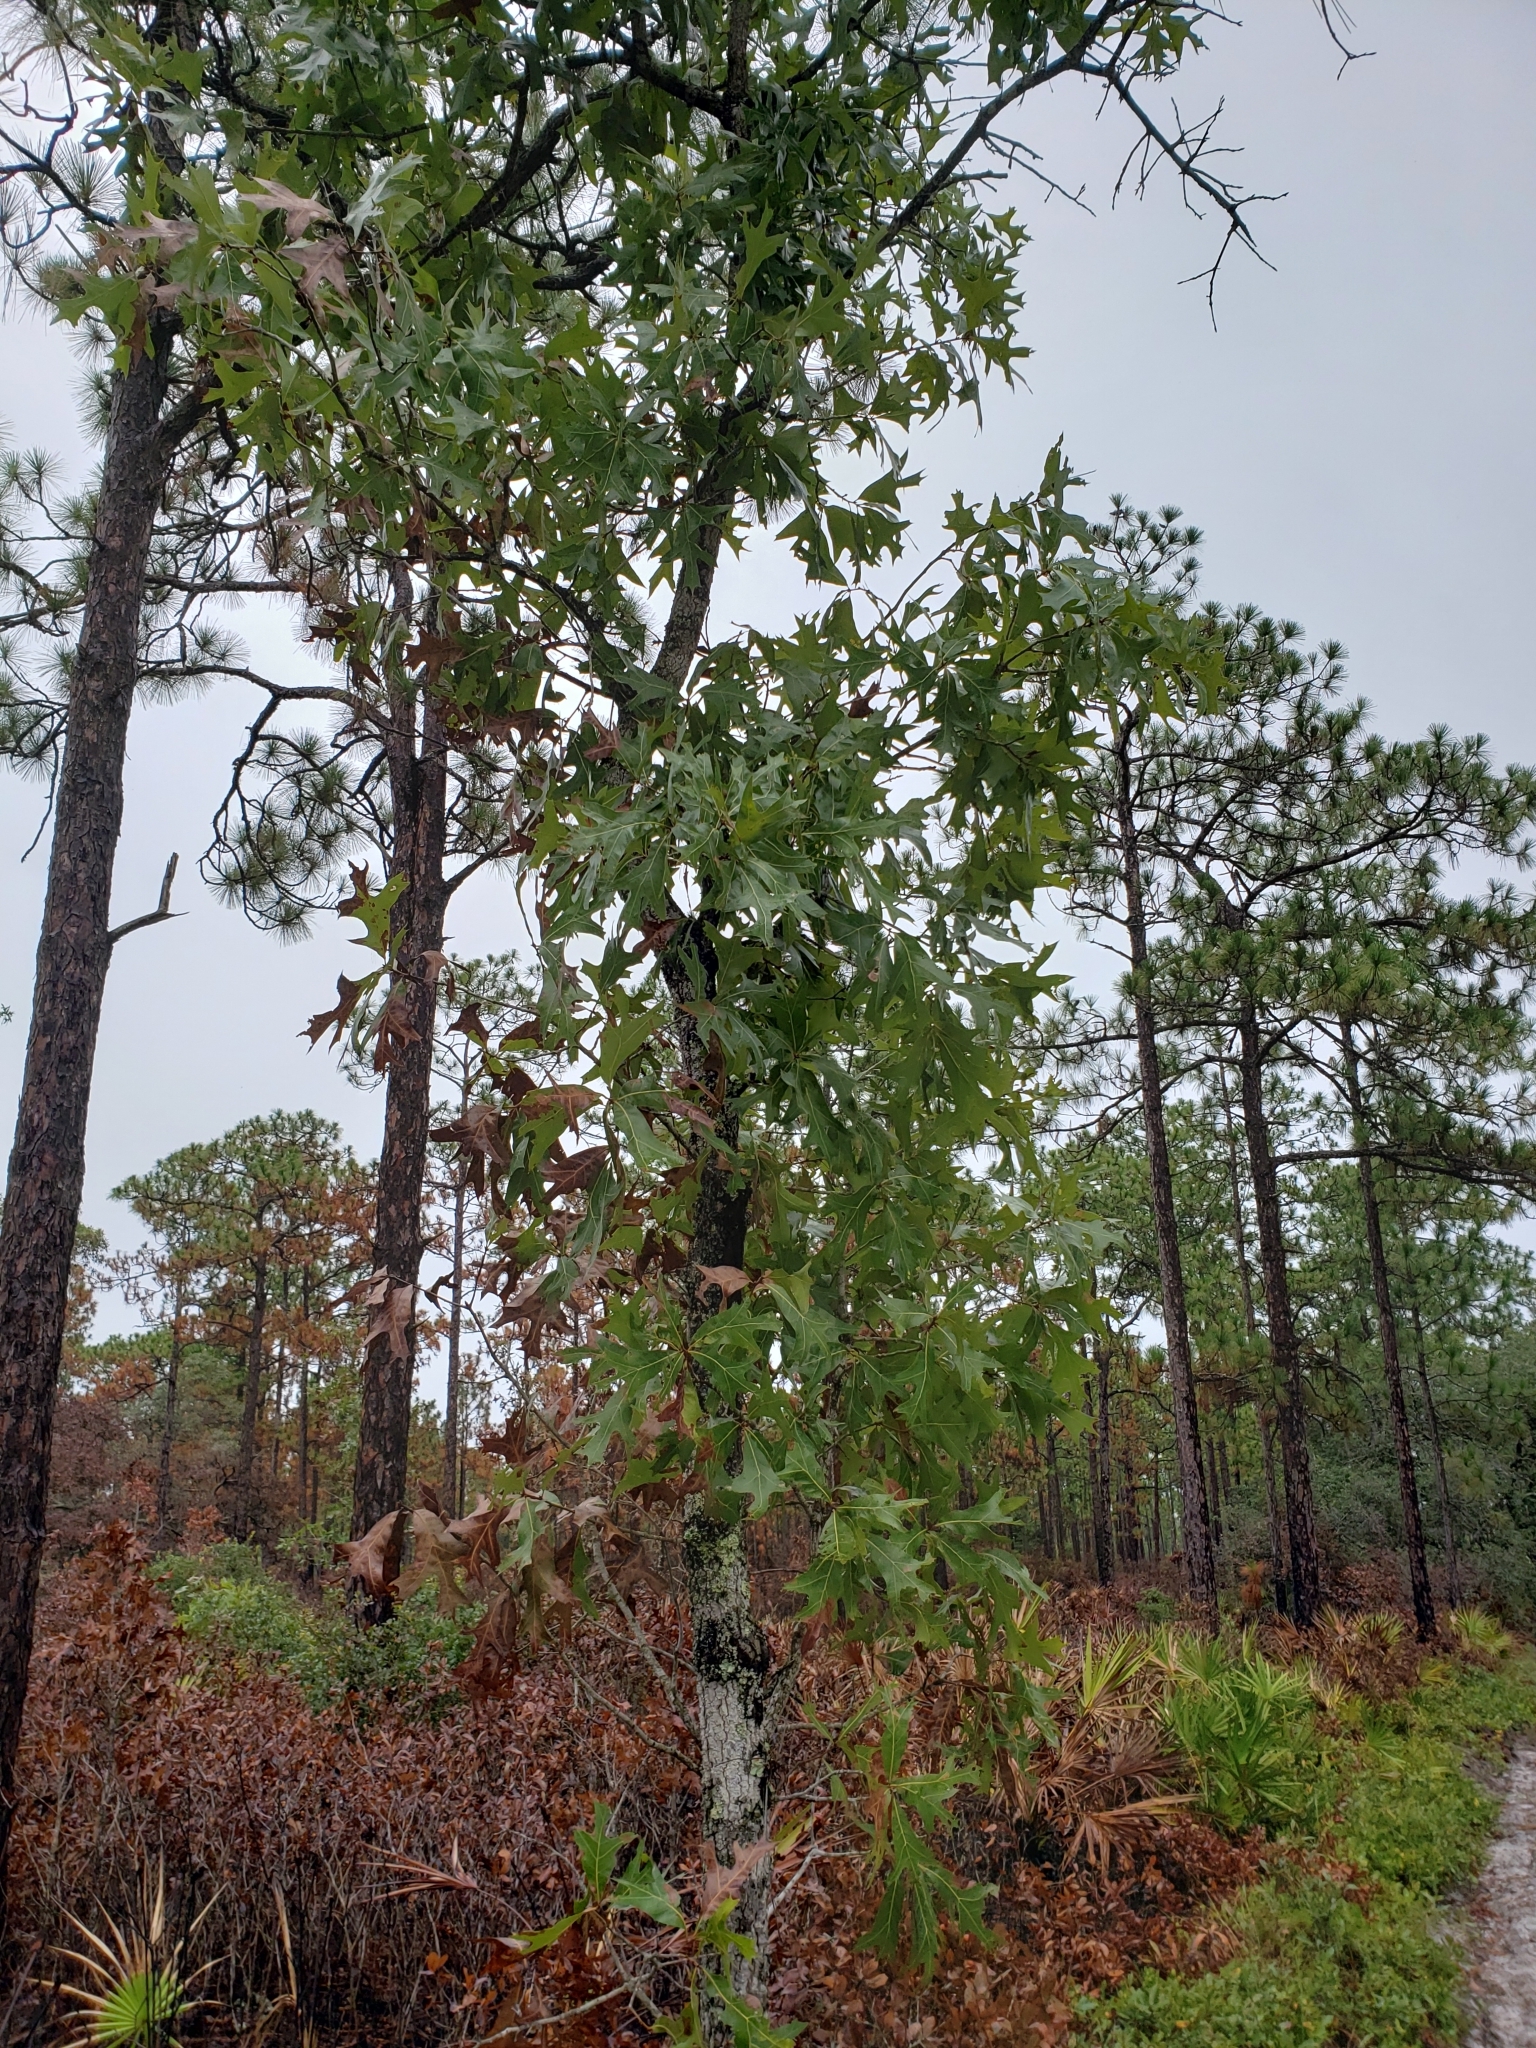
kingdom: Plantae
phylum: Tracheophyta
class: Magnoliopsida
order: Fagales
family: Fagaceae
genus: Quercus
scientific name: Quercus laevis
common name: Turkey oak
